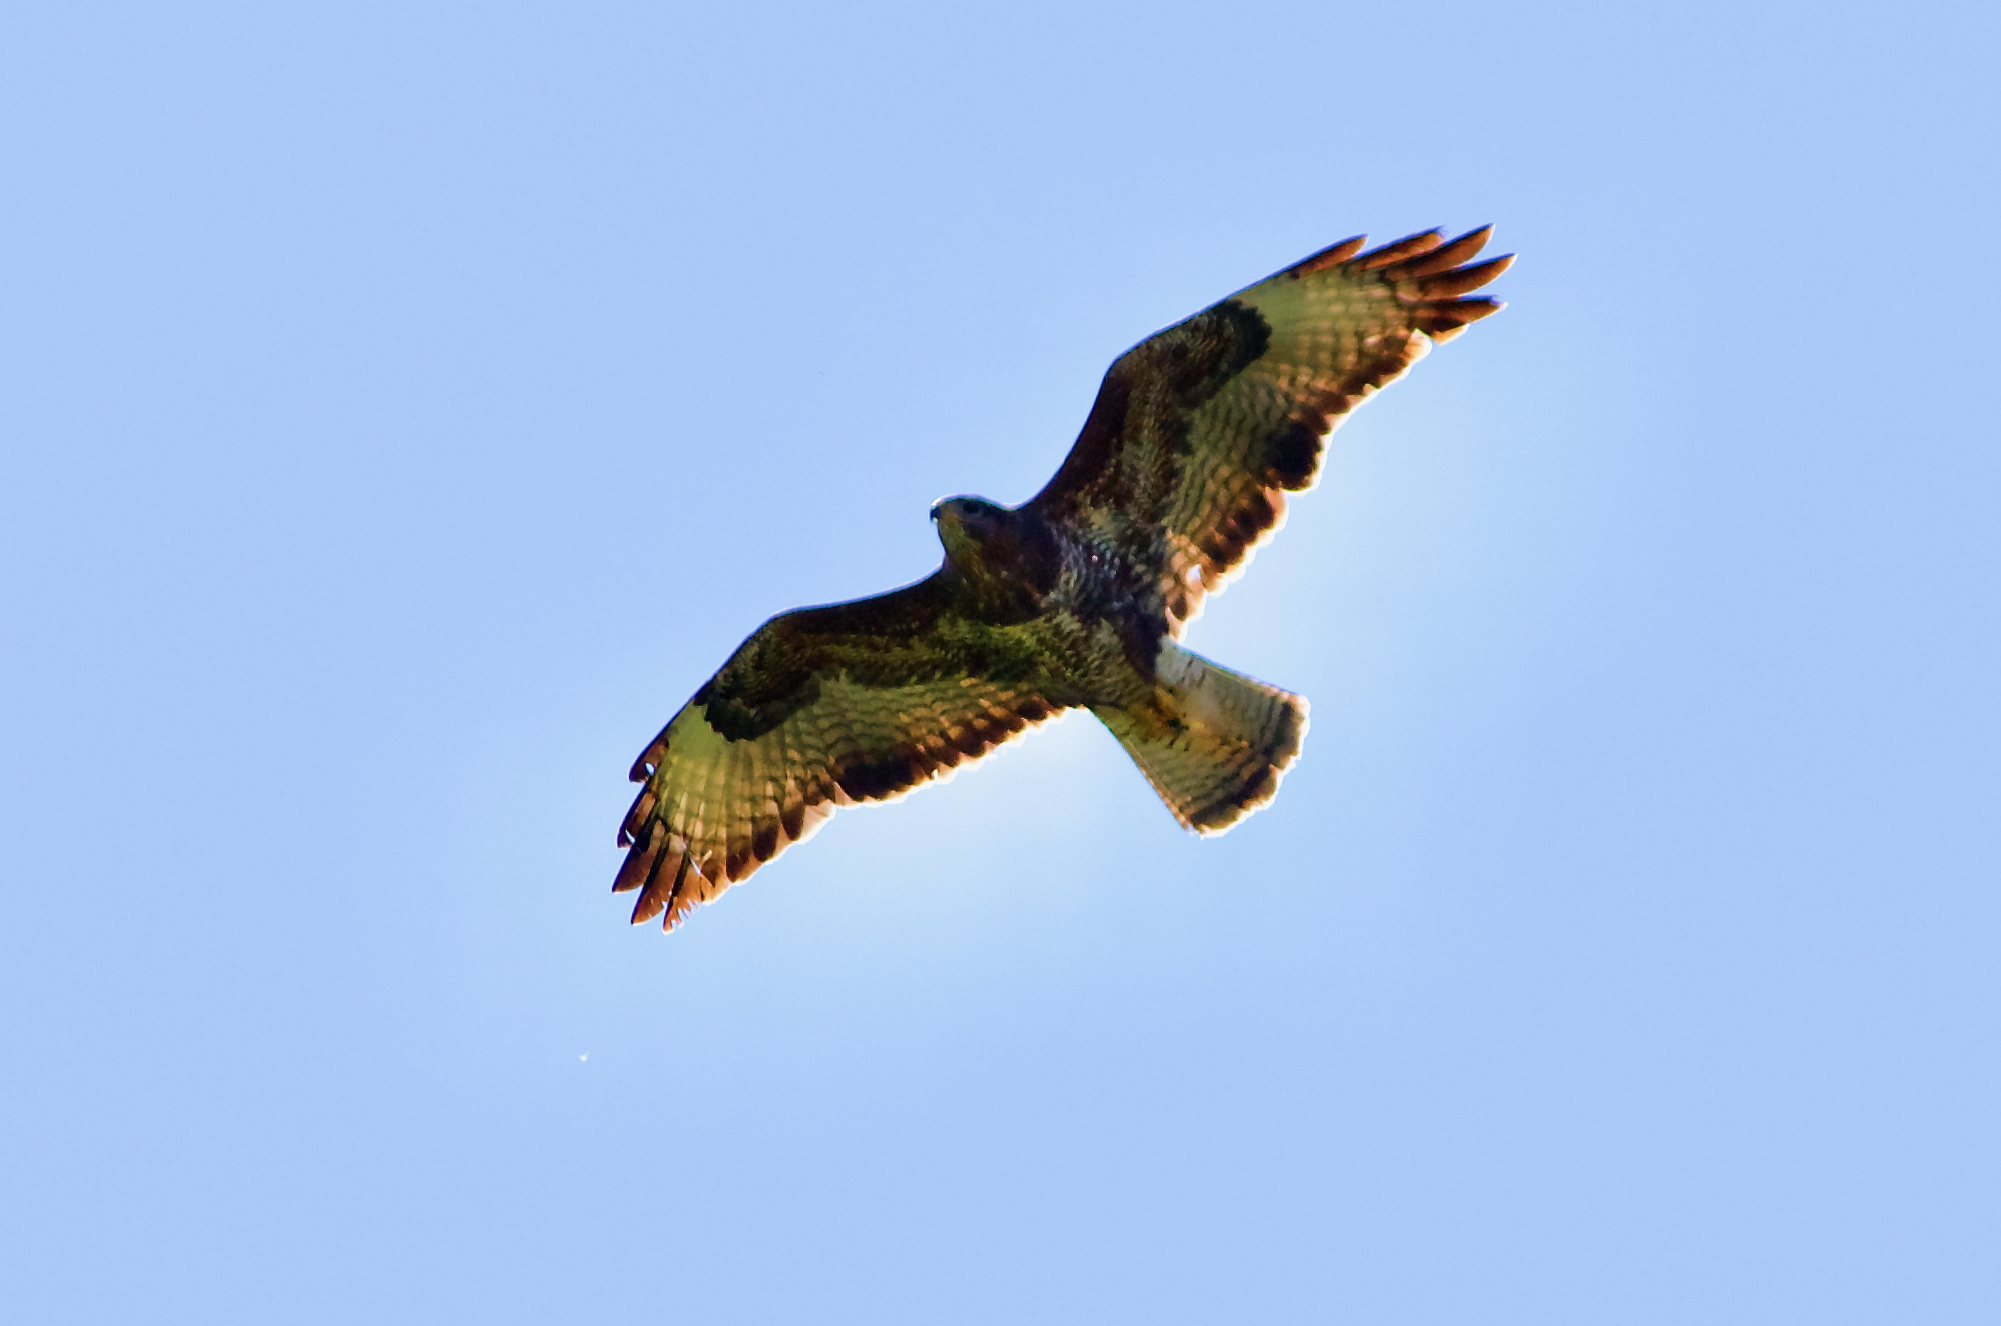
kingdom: Animalia
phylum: Chordata
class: Aves
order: Accipitriformes
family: Accipitridae
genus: Buteo
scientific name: Buteo buteo
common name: Common buzzard
